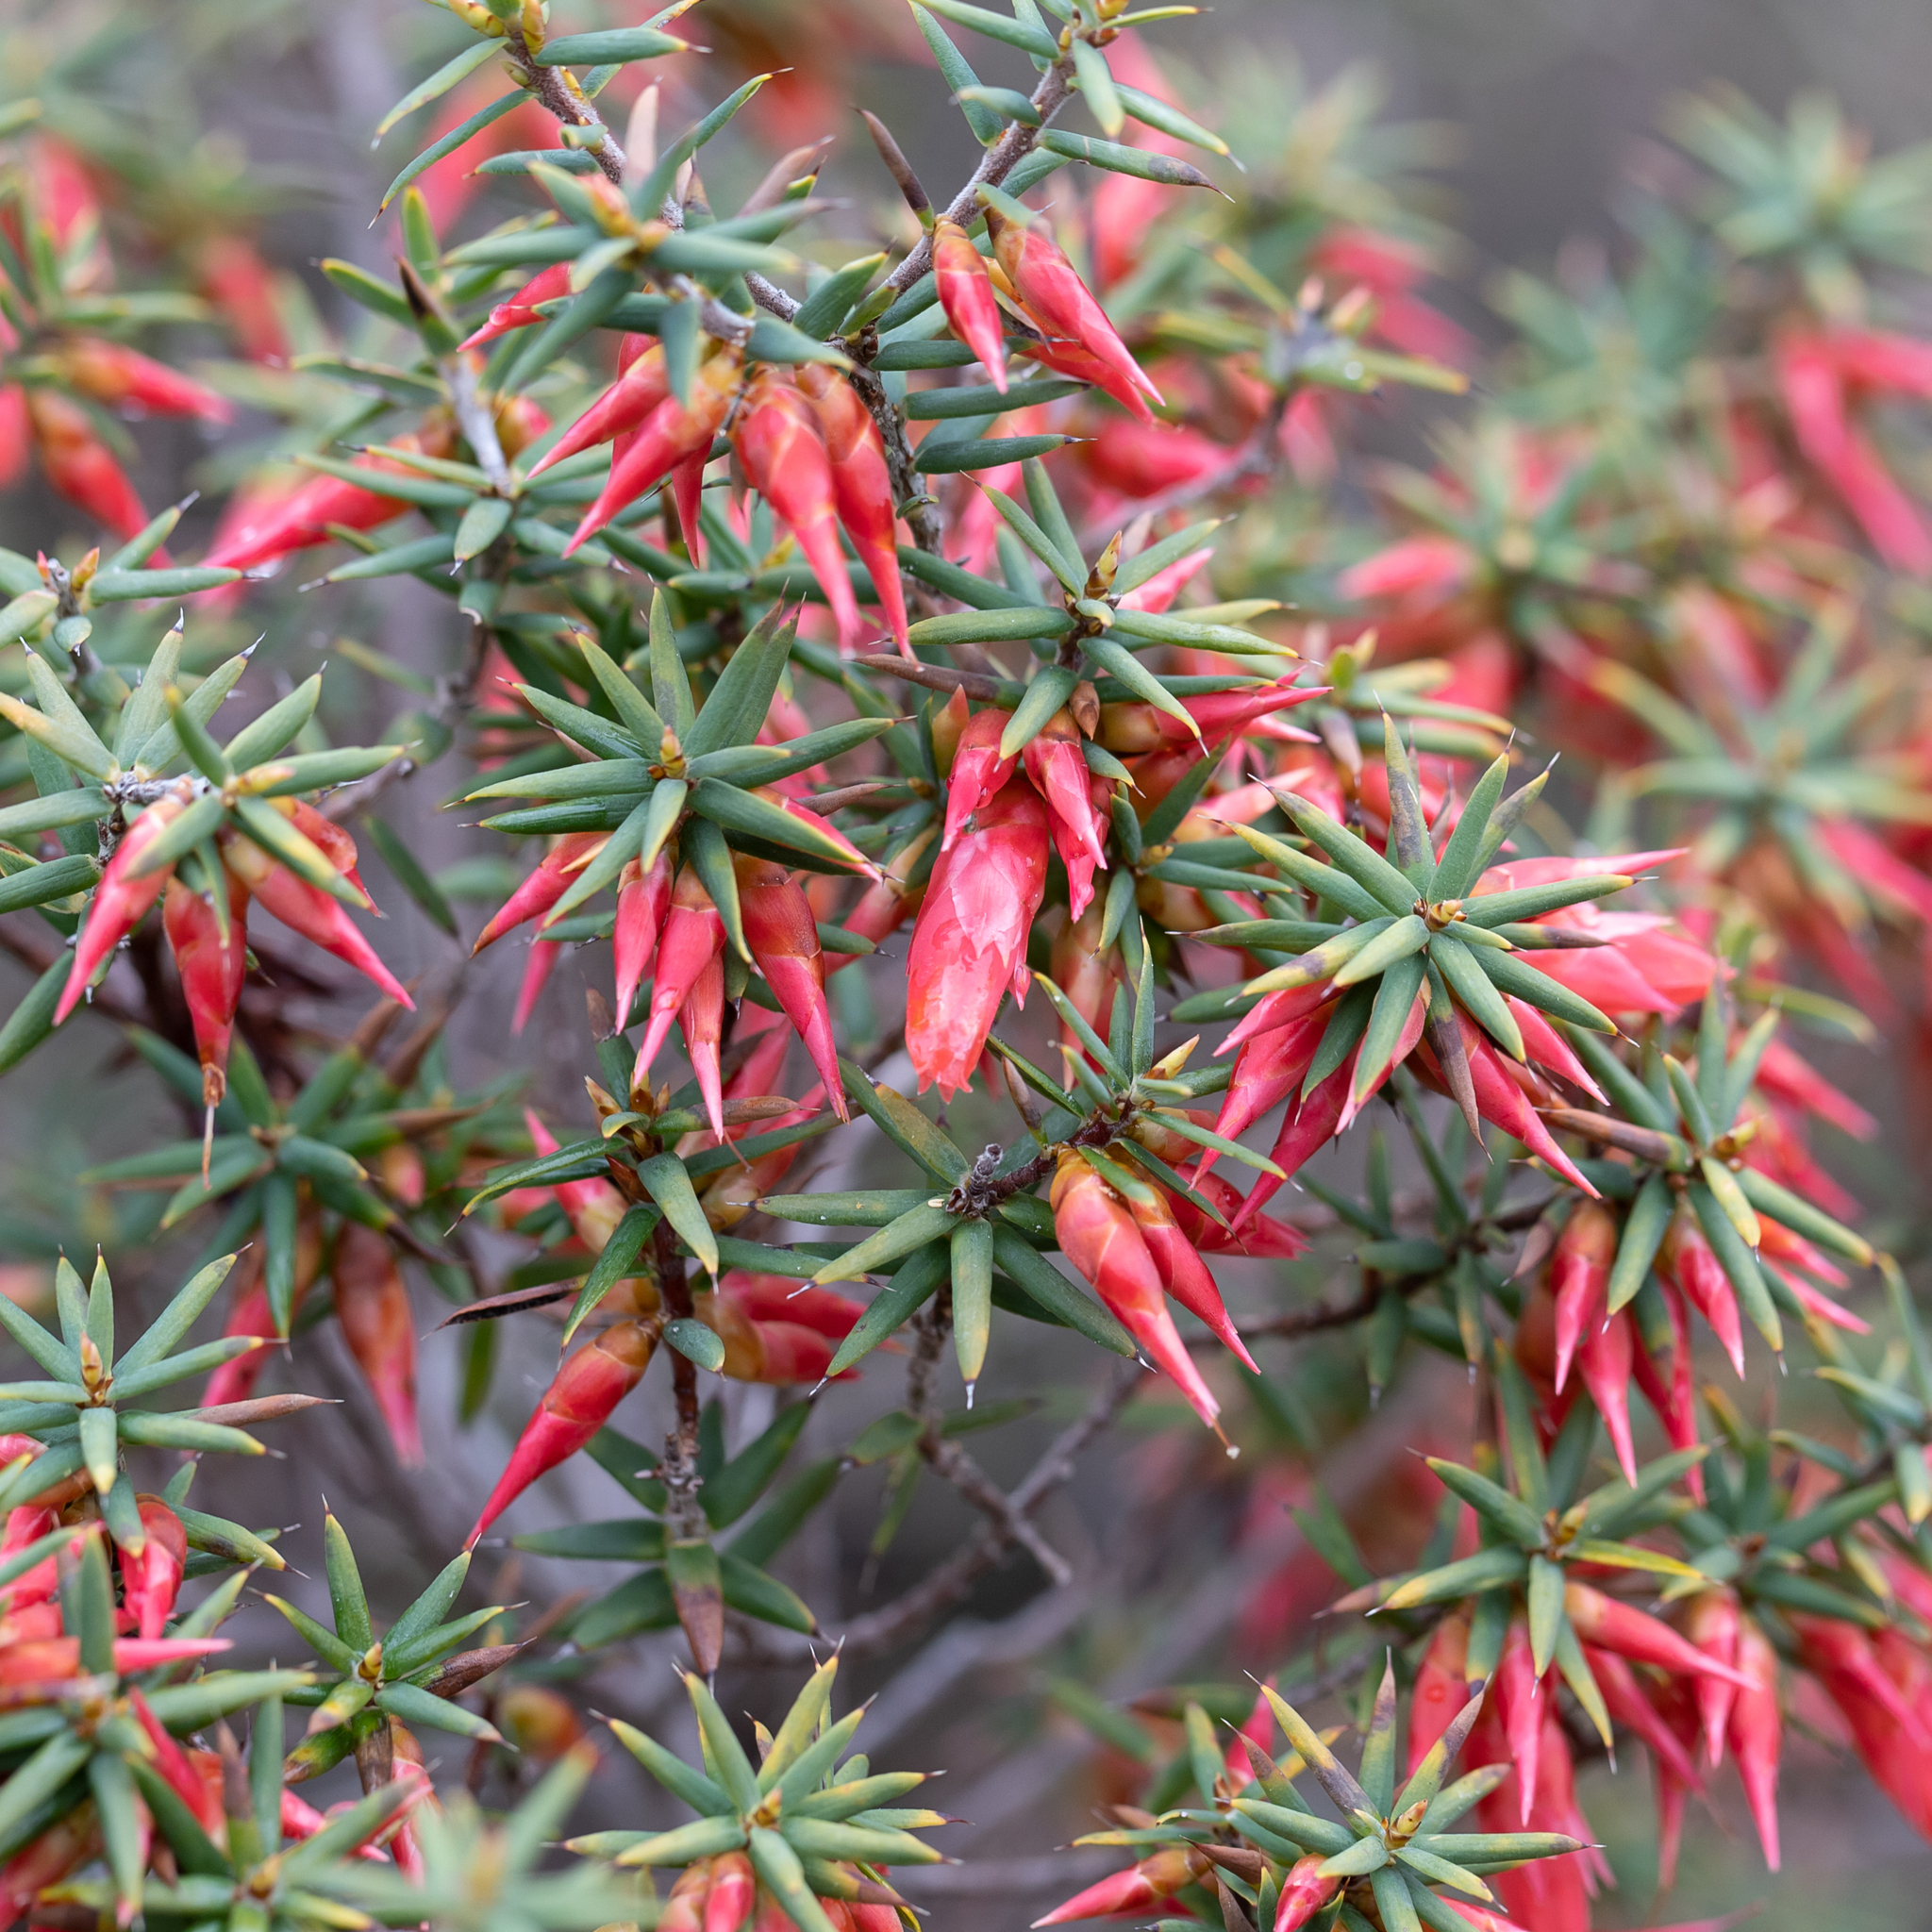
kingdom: Plantae
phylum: Tracheophyta
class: Magnoliopsida
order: Ericales
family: Ericaceae
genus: Stenanthera
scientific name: Stenanthera conostephioides
